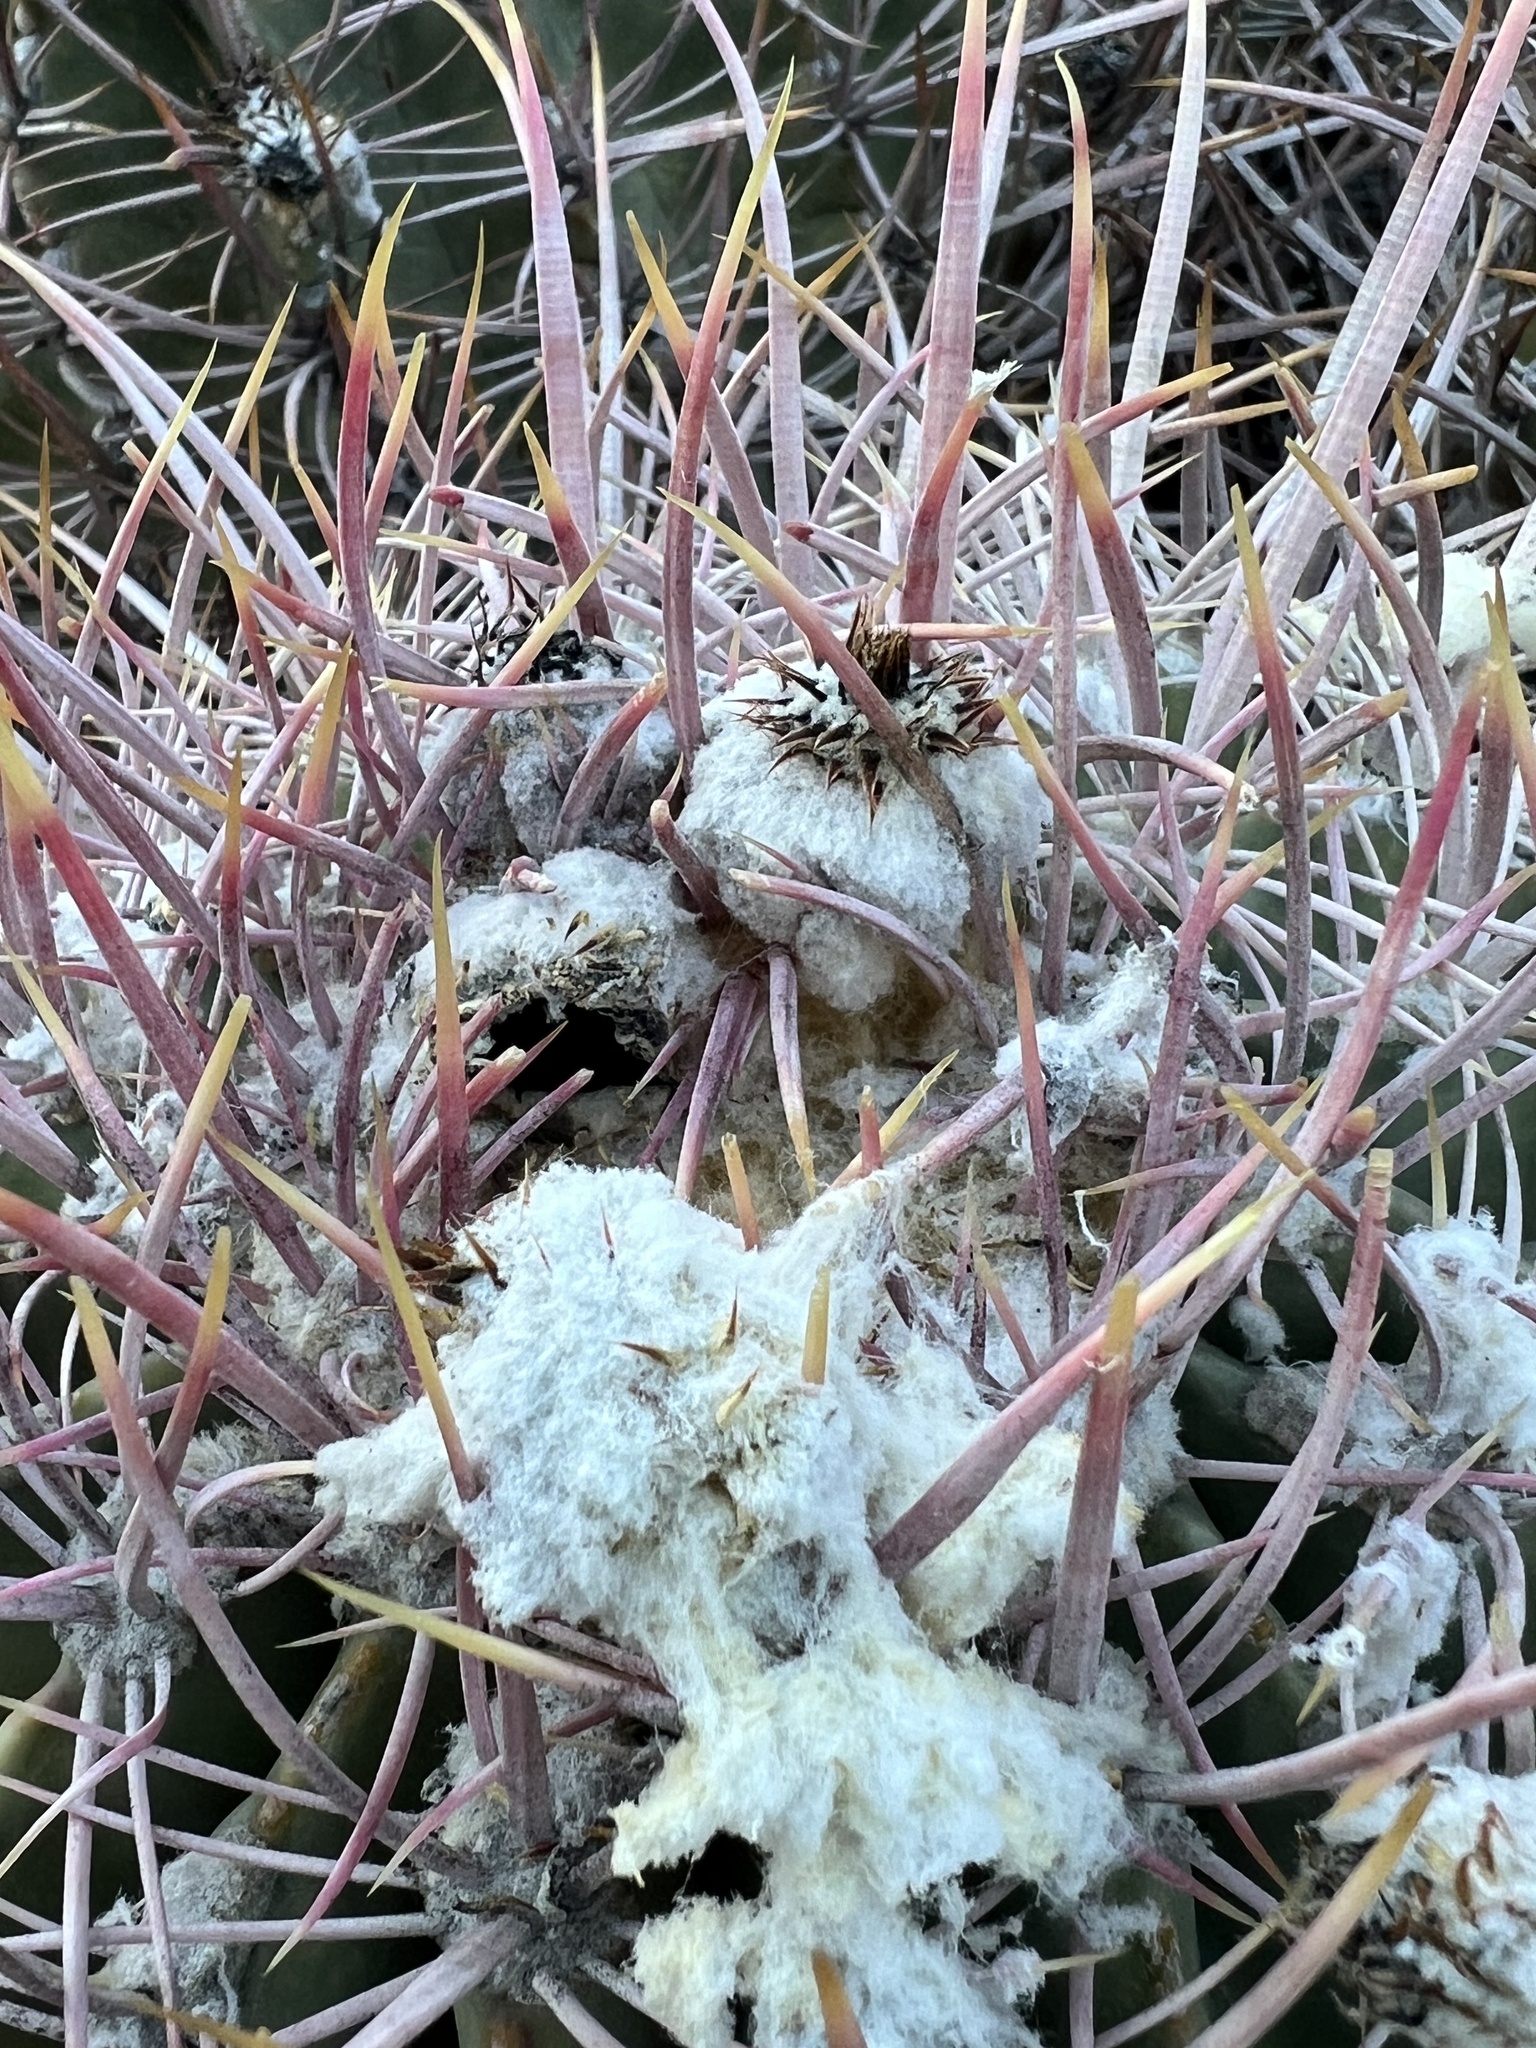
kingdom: Plantae
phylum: Tracheophyta
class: Magnoliopsida
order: Caryophyllales
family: Cactaceae
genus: Echinocactus
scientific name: Echinocactus polycephalus
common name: Cottontop cactus
